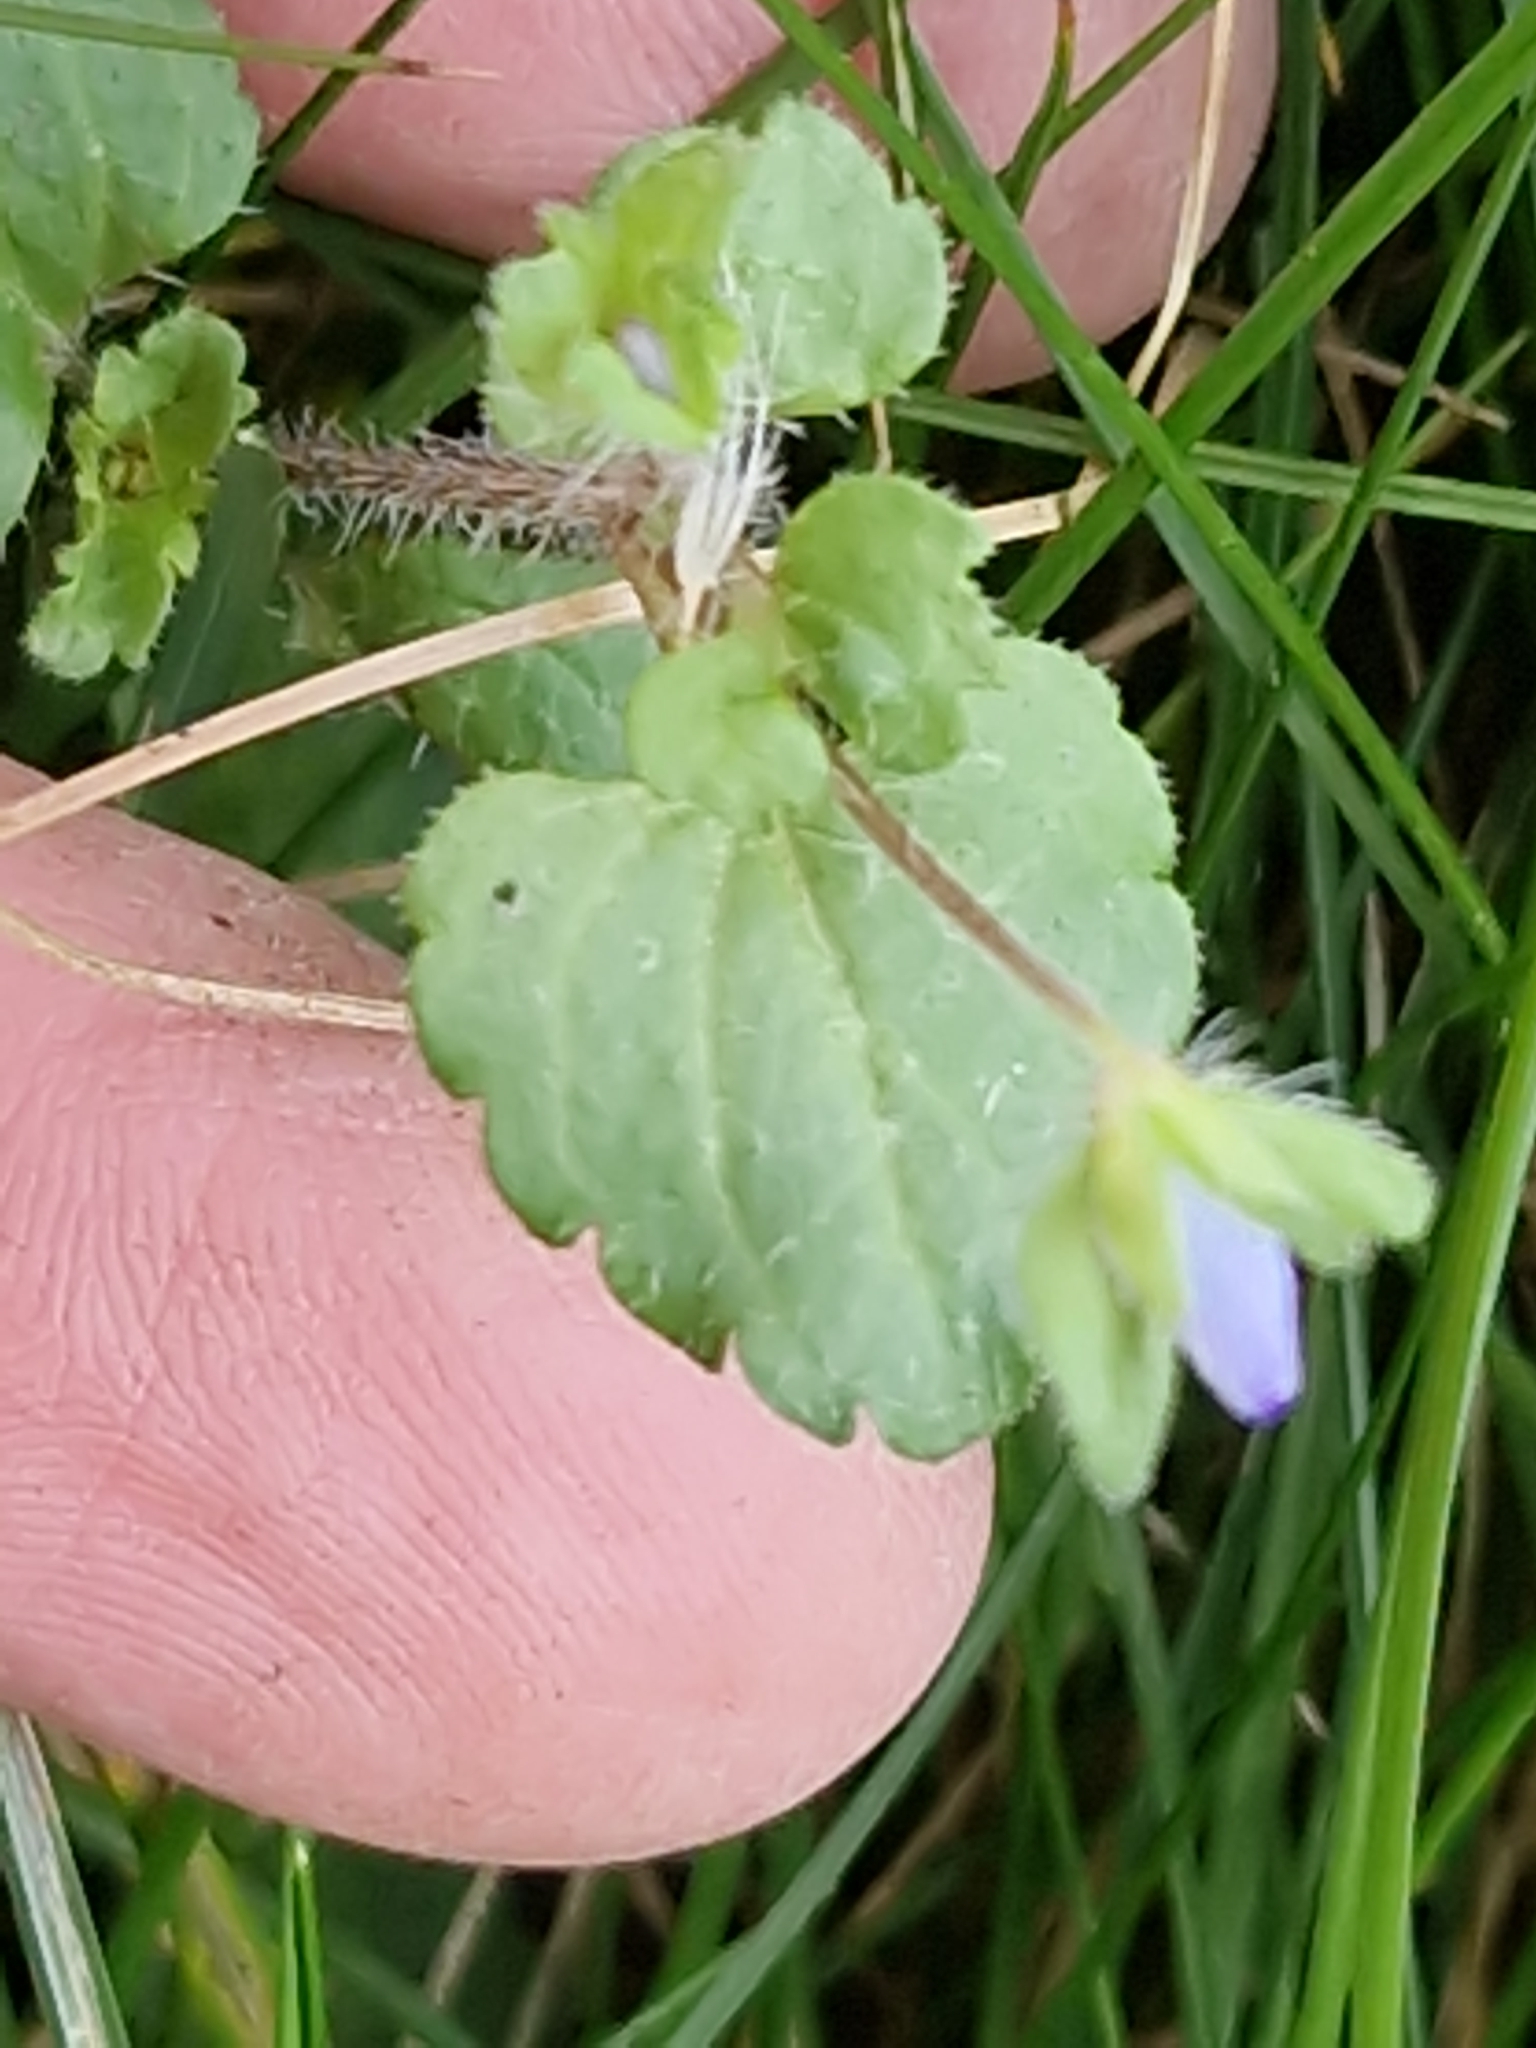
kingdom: Plantae
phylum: Tracheophyta
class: Magnoliopsida
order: Lamiales
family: Plantaginaceae
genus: Veronica
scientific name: Veronica persica
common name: Common field-speedwell
